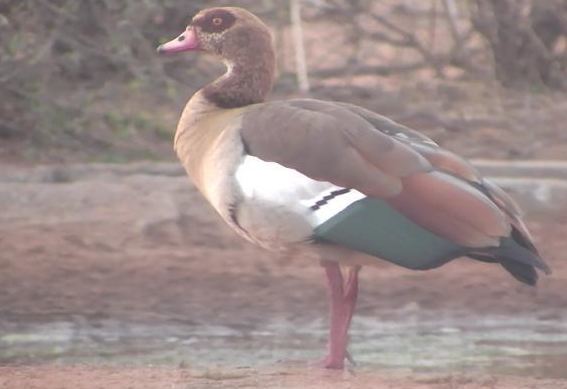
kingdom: Animalia
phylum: Chordata
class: Aves
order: Anseriformes
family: Anatidae
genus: Alopochen
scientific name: Alopochen aegyptiaca
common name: Egyptian goose
